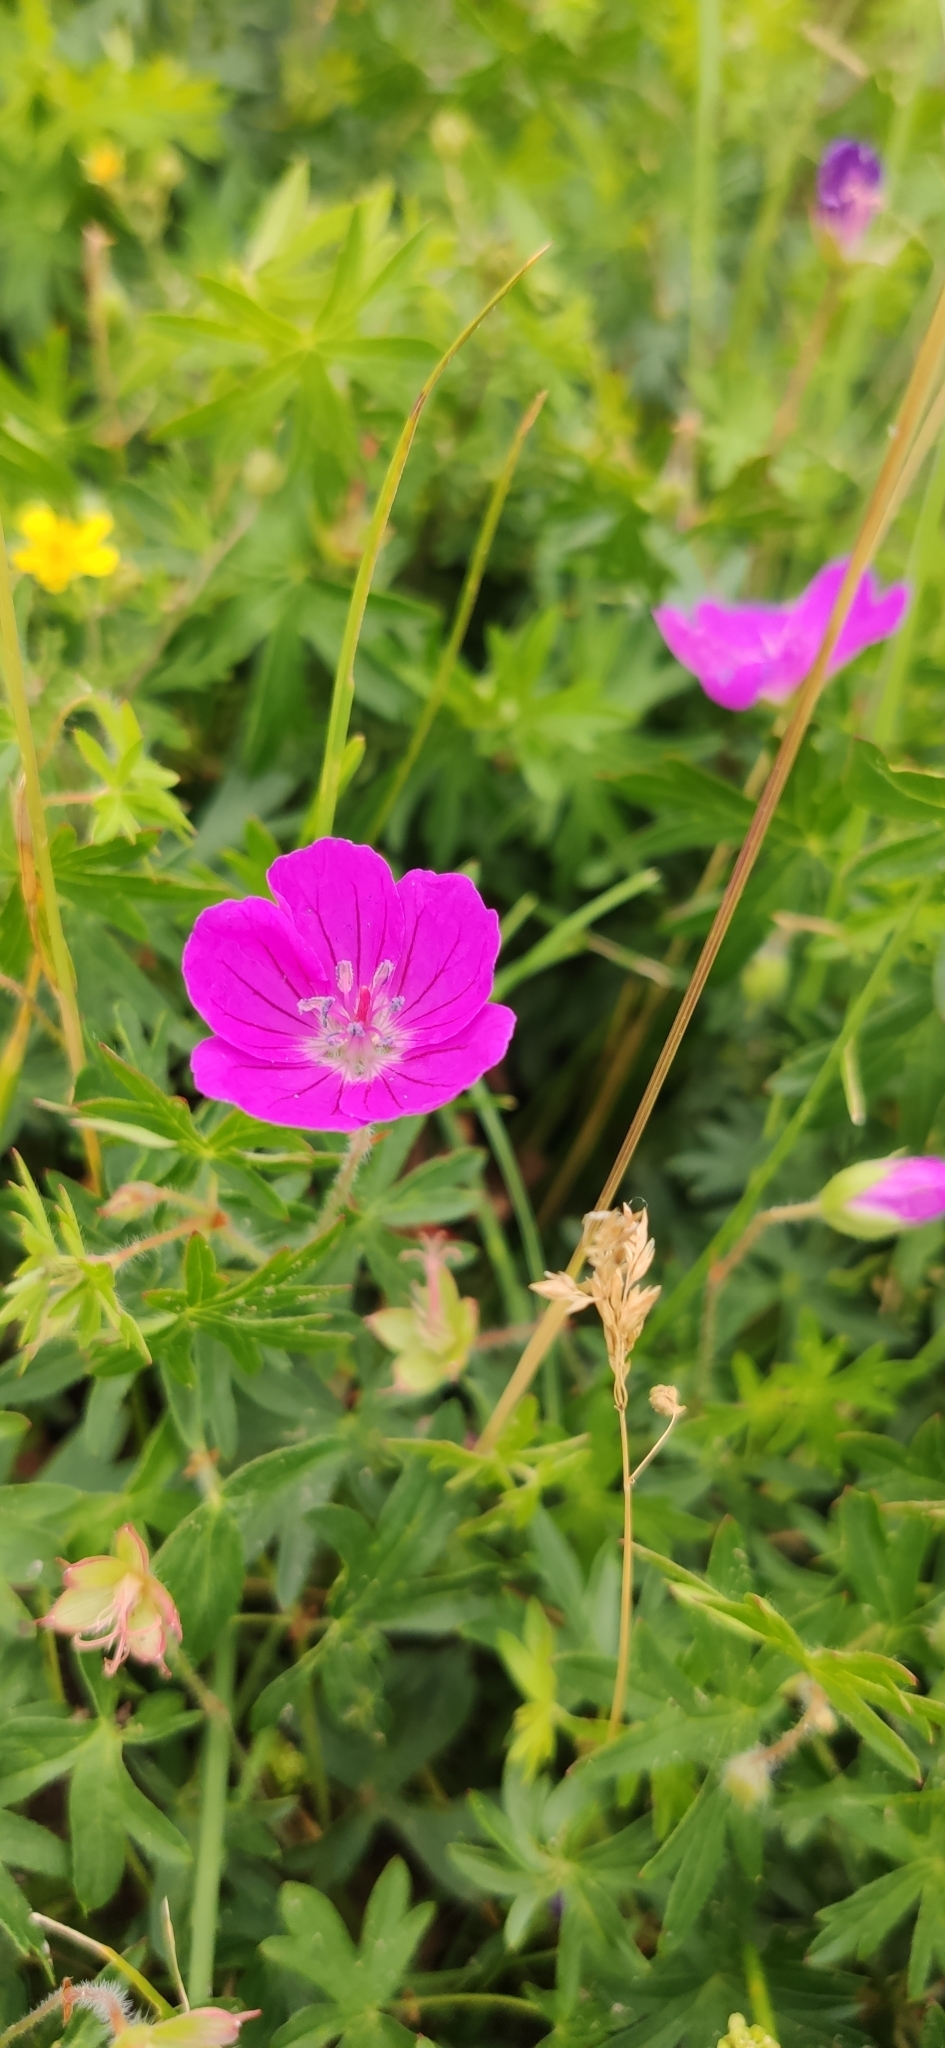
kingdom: Plantae
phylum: Tracheophyta
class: Magnoliopsida
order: Geraniales
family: Geraniaceae
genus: Geranium
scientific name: Geranium sanguineum
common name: Bloody crane's-bill
